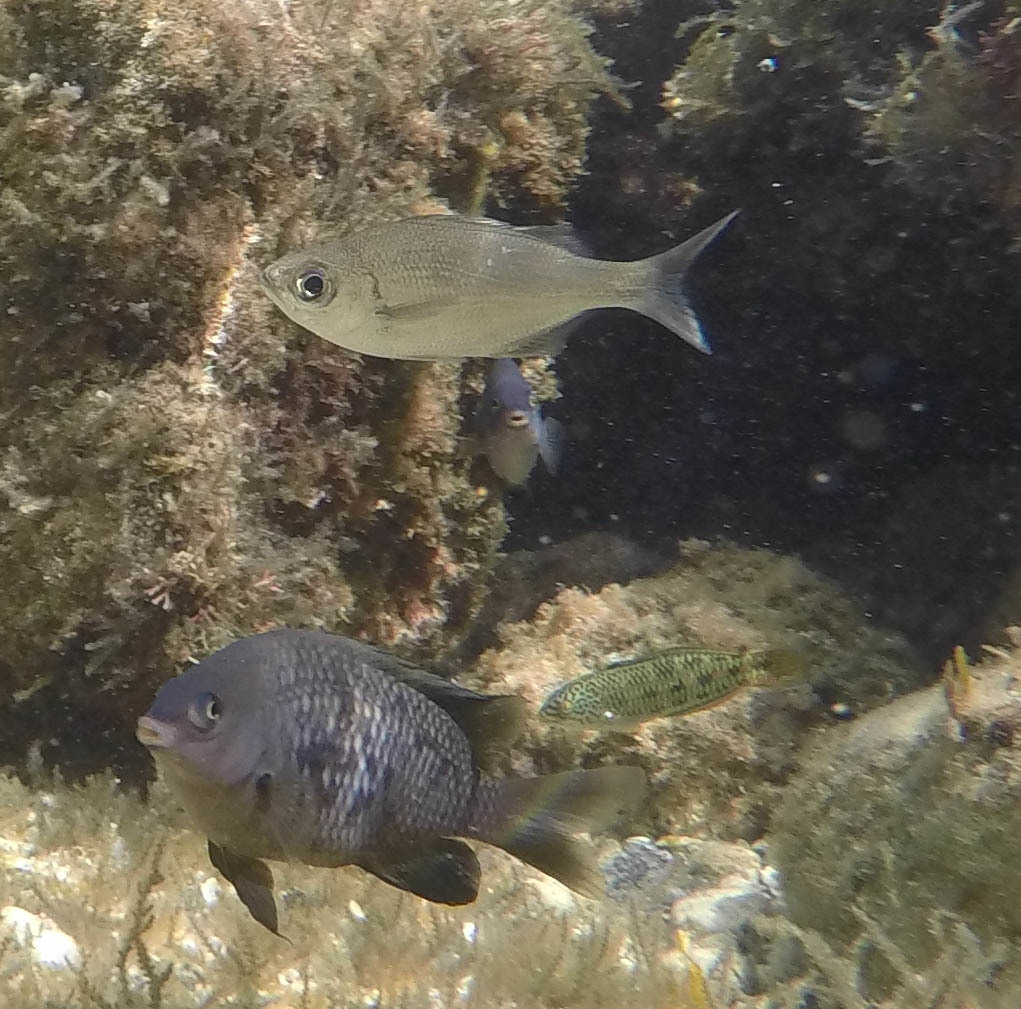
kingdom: Animalia
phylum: Chordata
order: Perciformes
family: Kuhliidae
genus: Kuhlia
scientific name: Kuhlia xenura
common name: Hawaiian flagtail
